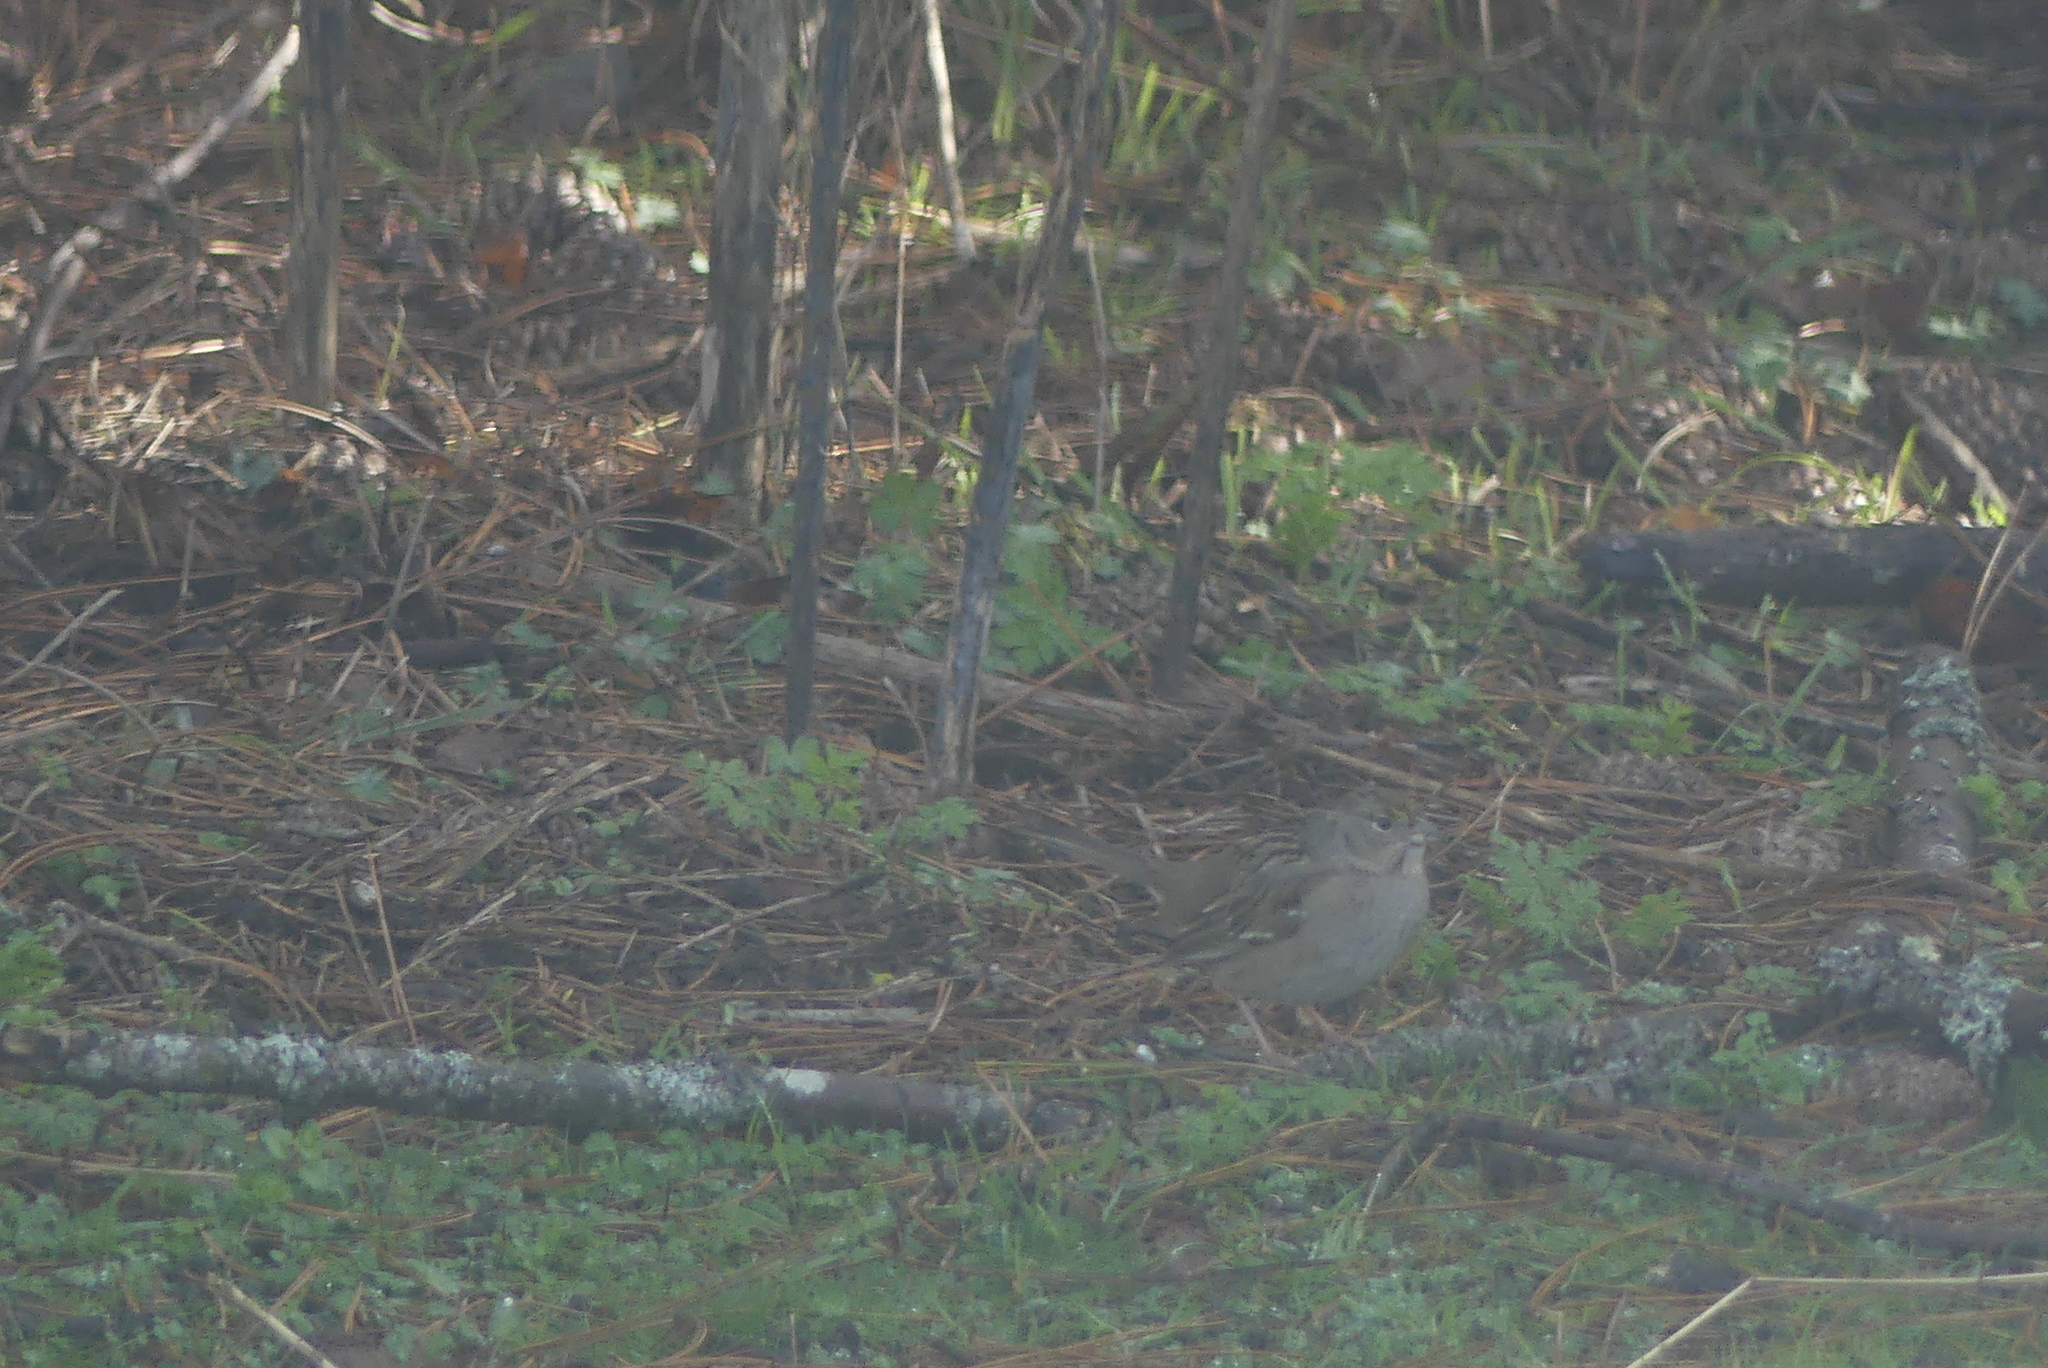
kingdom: Animalia
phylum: Chordata
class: Aves
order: Passeriformes
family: Passerellidae
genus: Zonotrichia
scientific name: Zonotrichia atricapilla
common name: Golden-crowned sparrow
